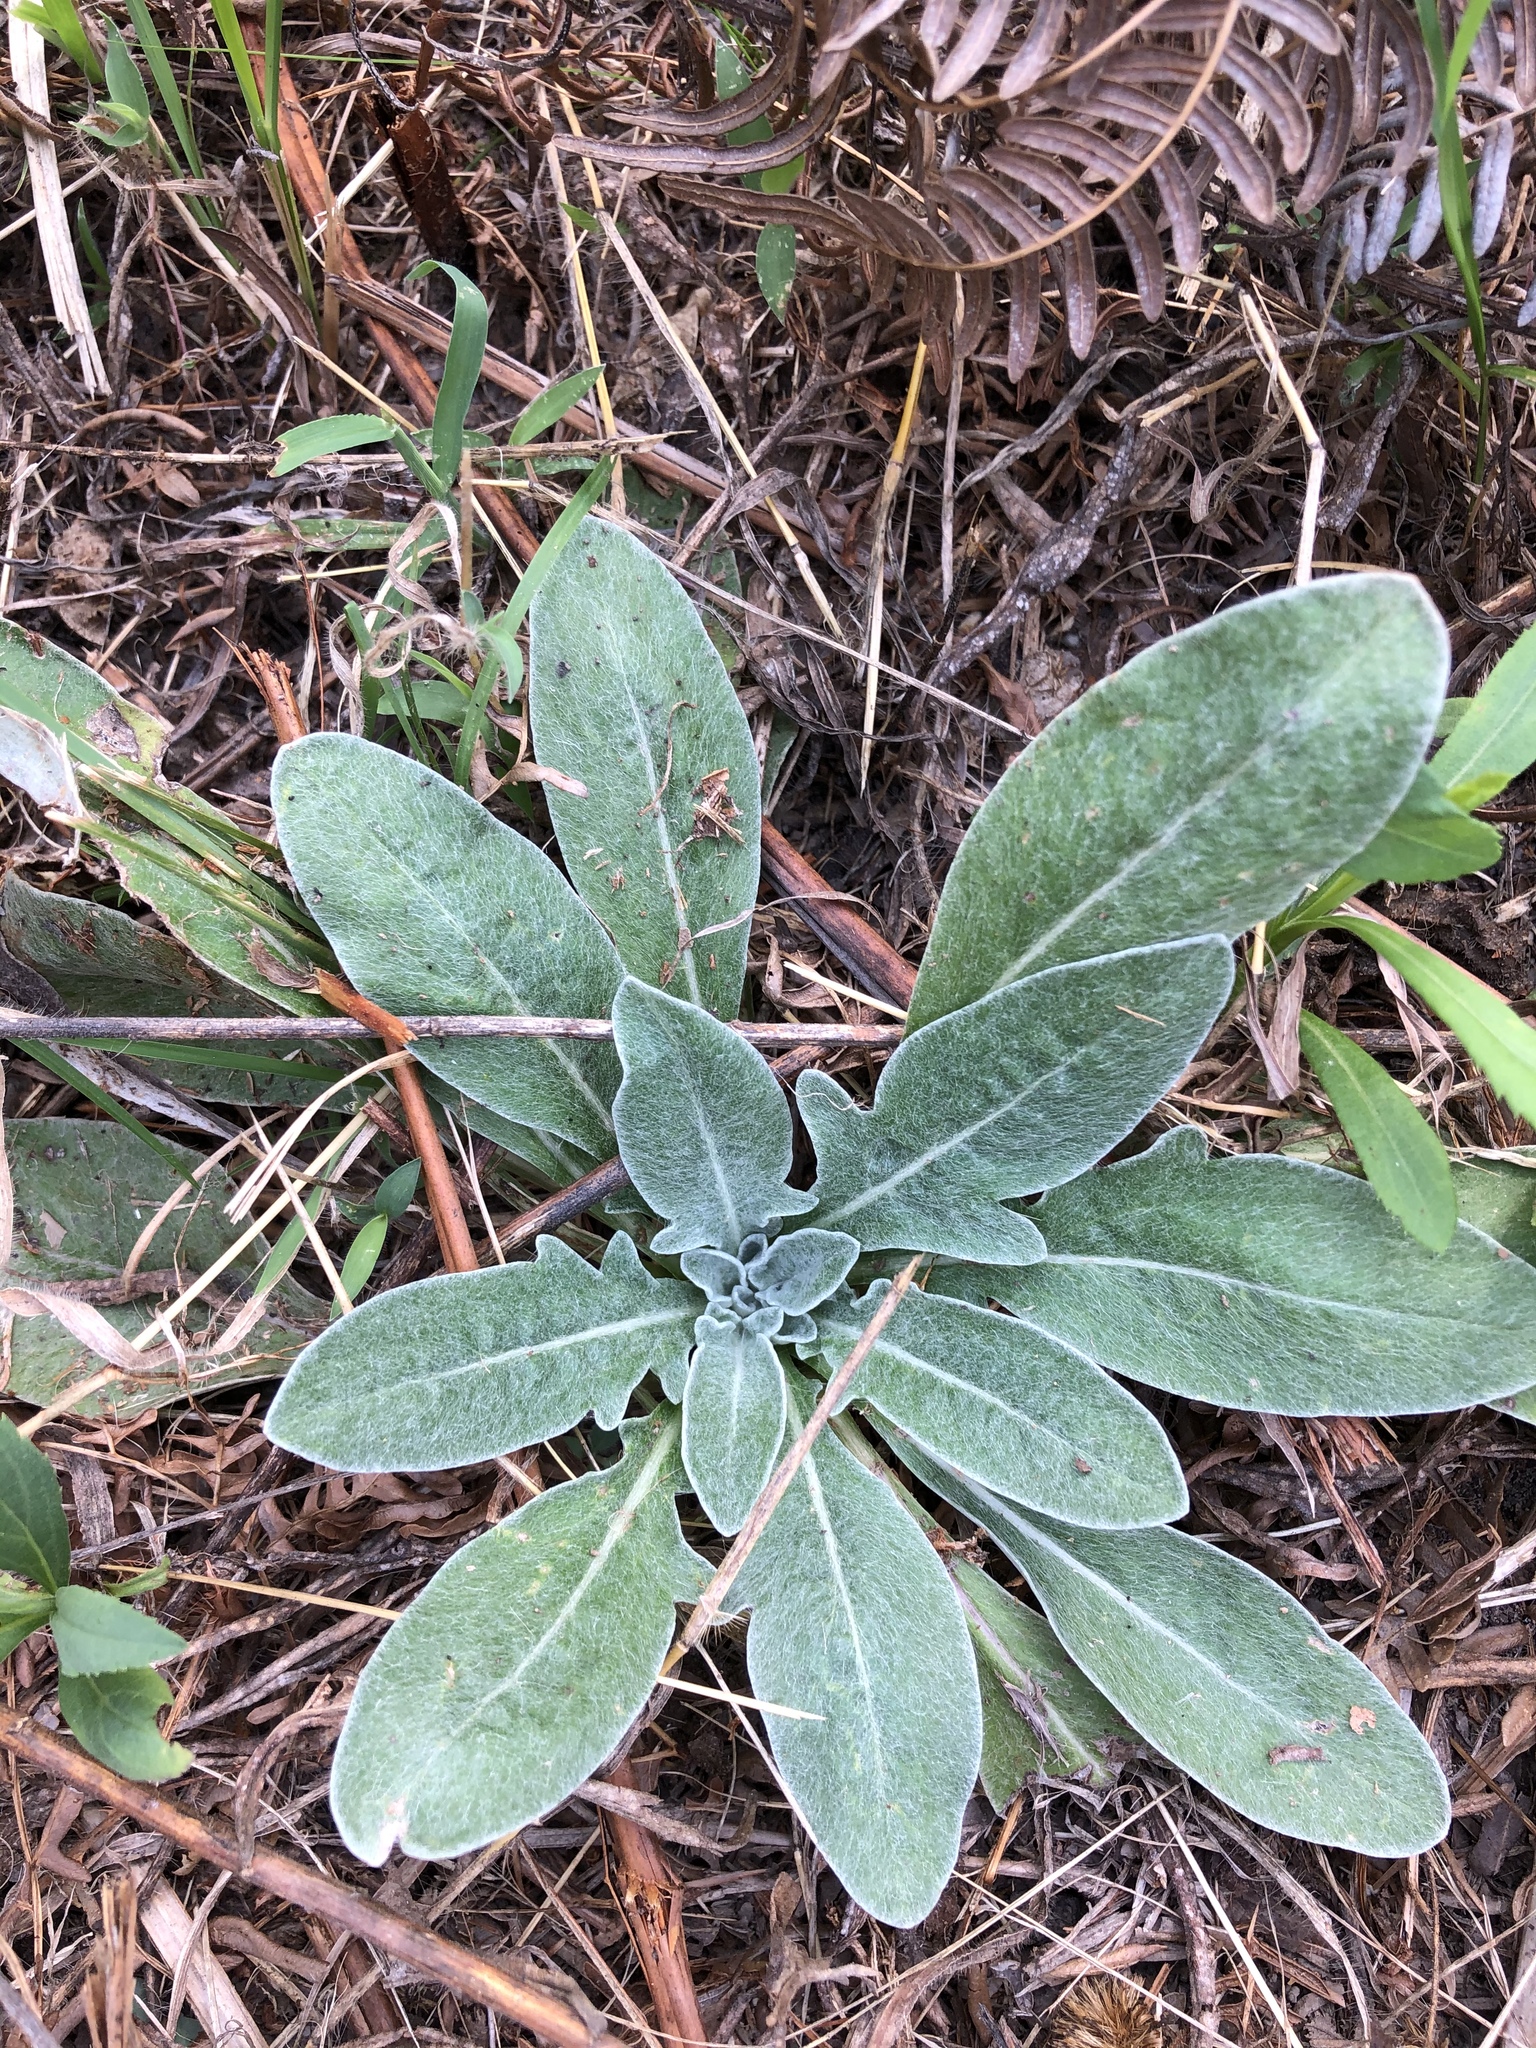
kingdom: Plantae
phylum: Tracheophyta
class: Magnoliopsida
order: Lamiales
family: Scrophulariaceae
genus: Verbascum
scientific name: Verbascum thapsus
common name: Common mullein
